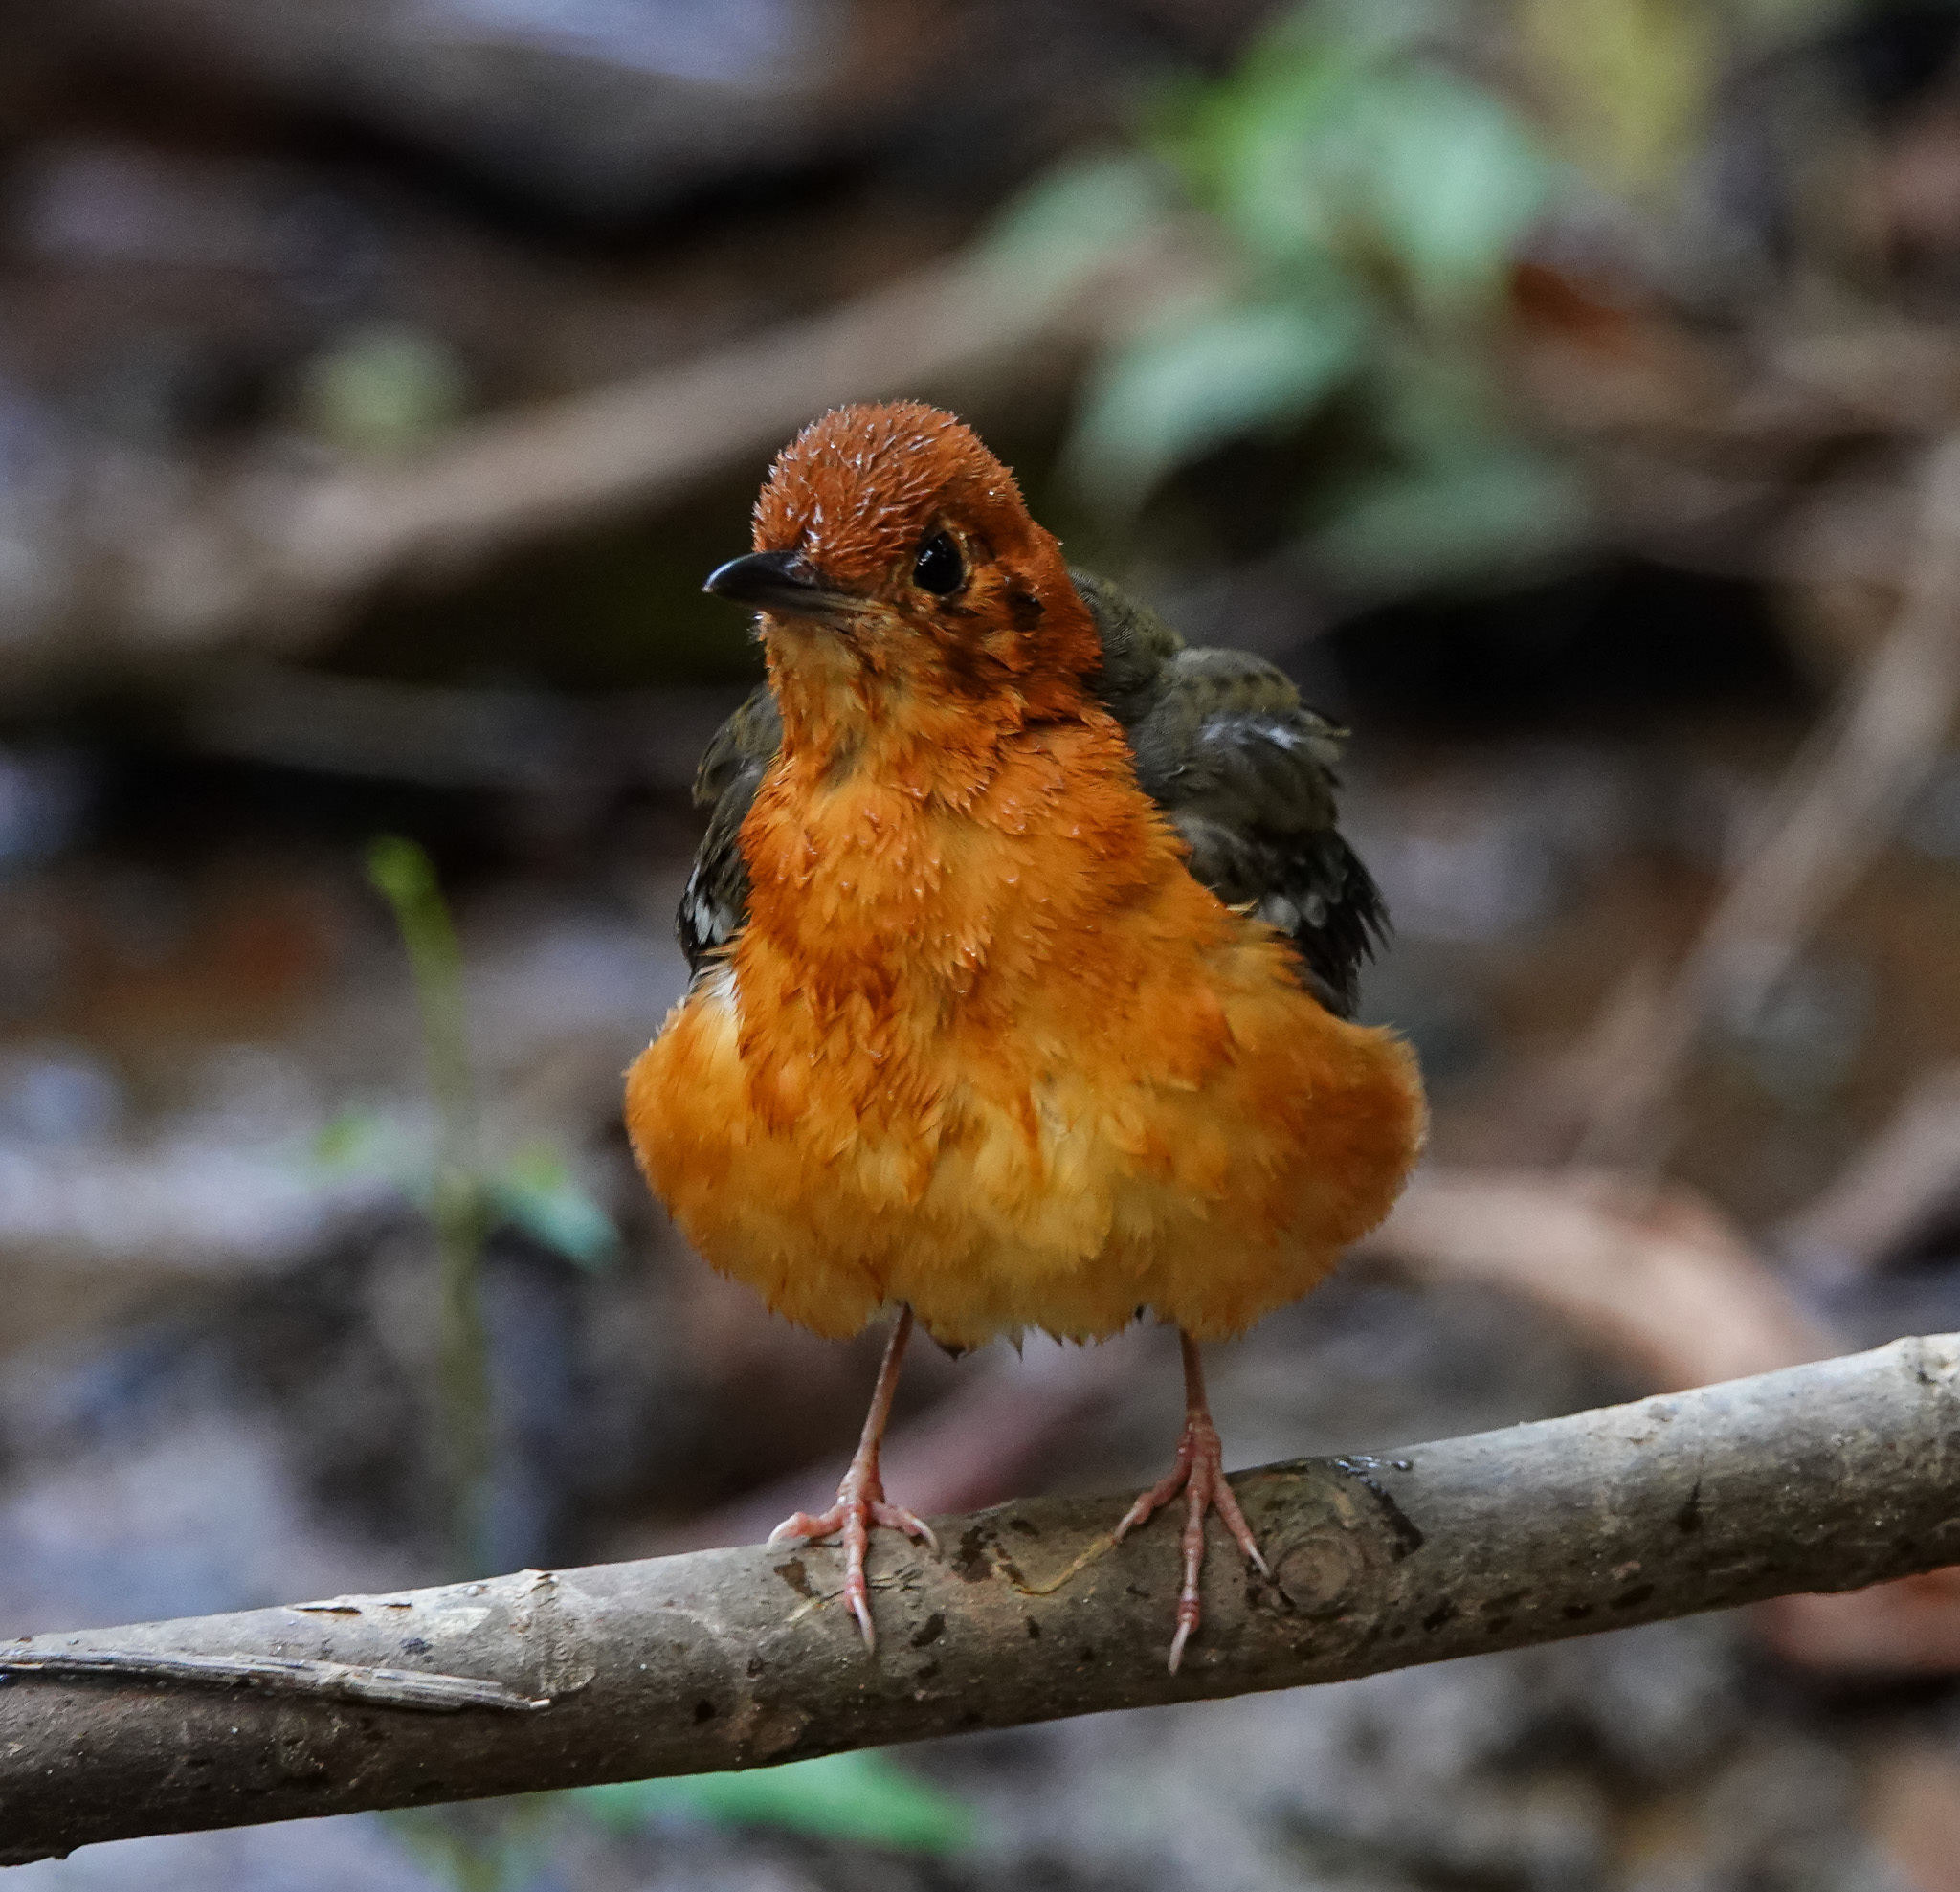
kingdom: Animalia
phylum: Chordata
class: Aves
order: Passeriformes
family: Turdidae
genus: Geokichla
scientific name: Geokichla citrina
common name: Orange-headed thrush
